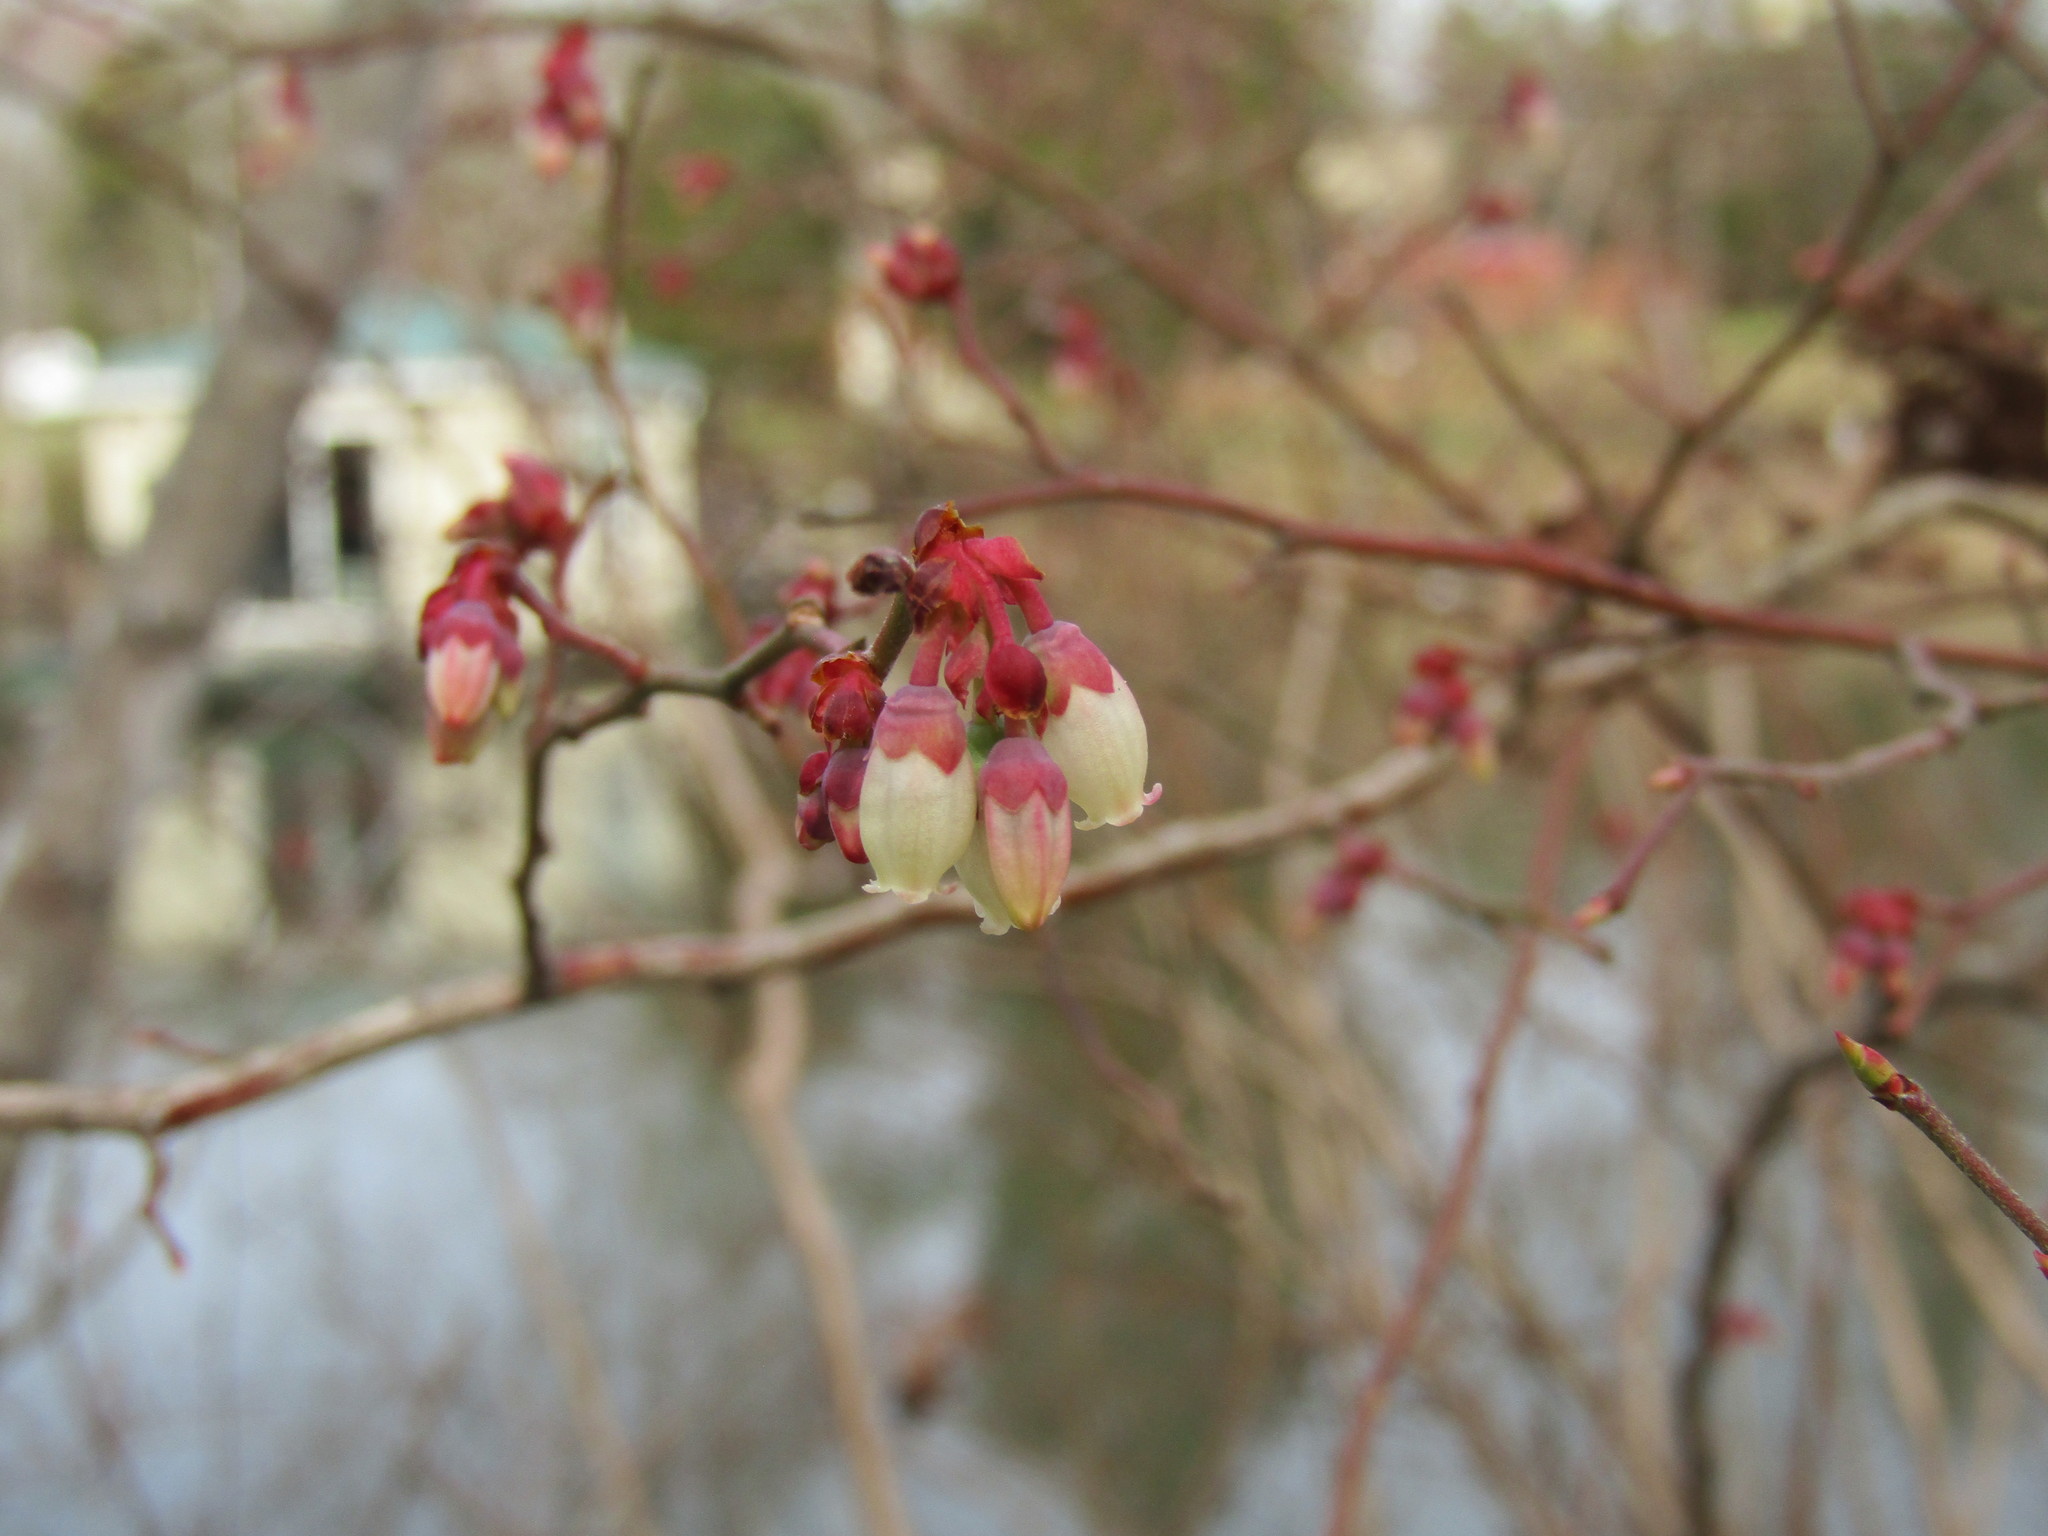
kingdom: Plantae
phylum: Tracheophyta
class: Magnoliopsida
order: Ericales
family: Ericaceae
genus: Vaccinium
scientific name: Vaccinium corymbosum
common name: Blueberry
